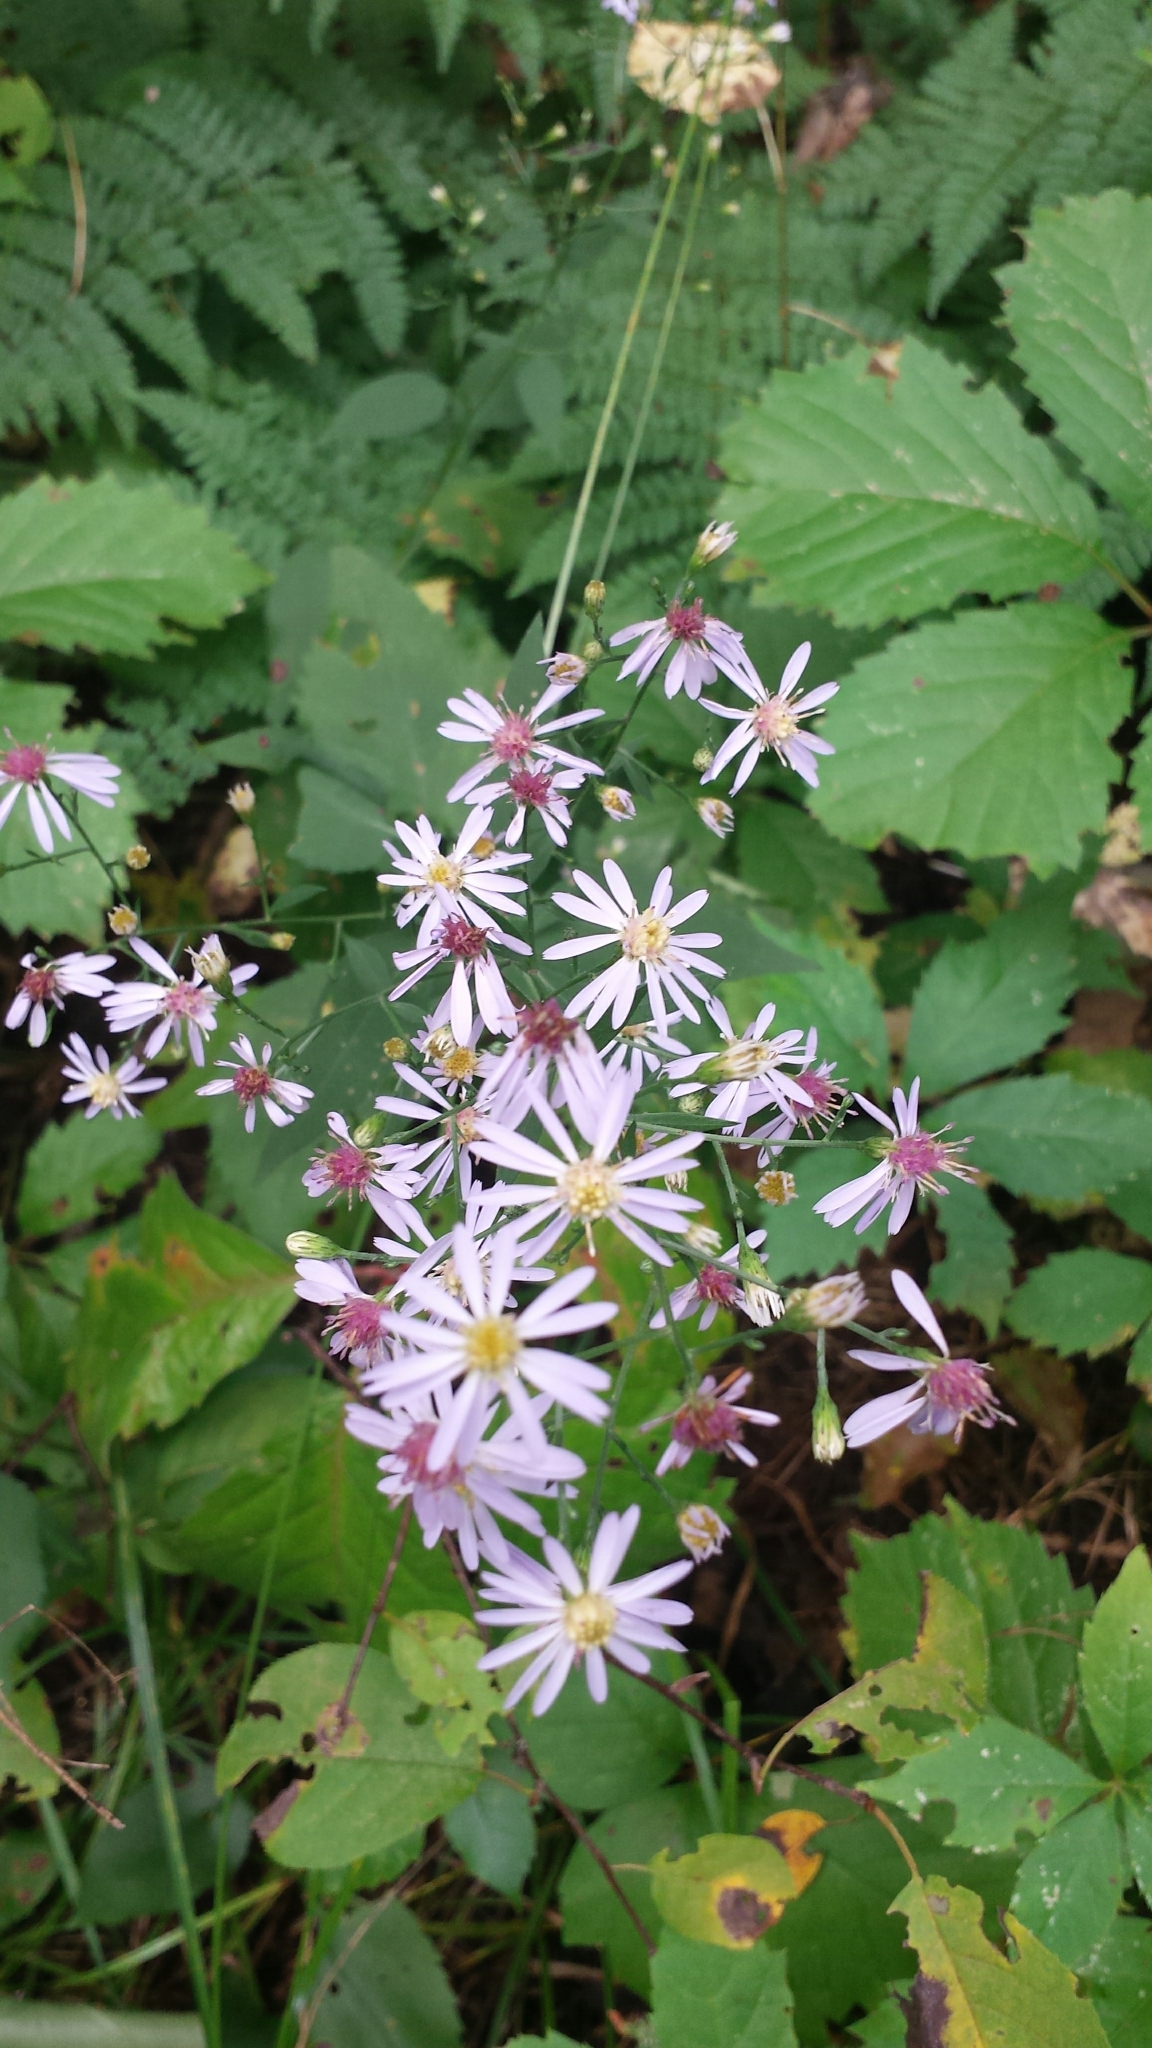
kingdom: Plantae
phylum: Tracheophyta
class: Magnoliopsida
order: Asterales
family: Asteraceae
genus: Symphyotrichum
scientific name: Symphyotrichum cordifolium
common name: Beeweed
